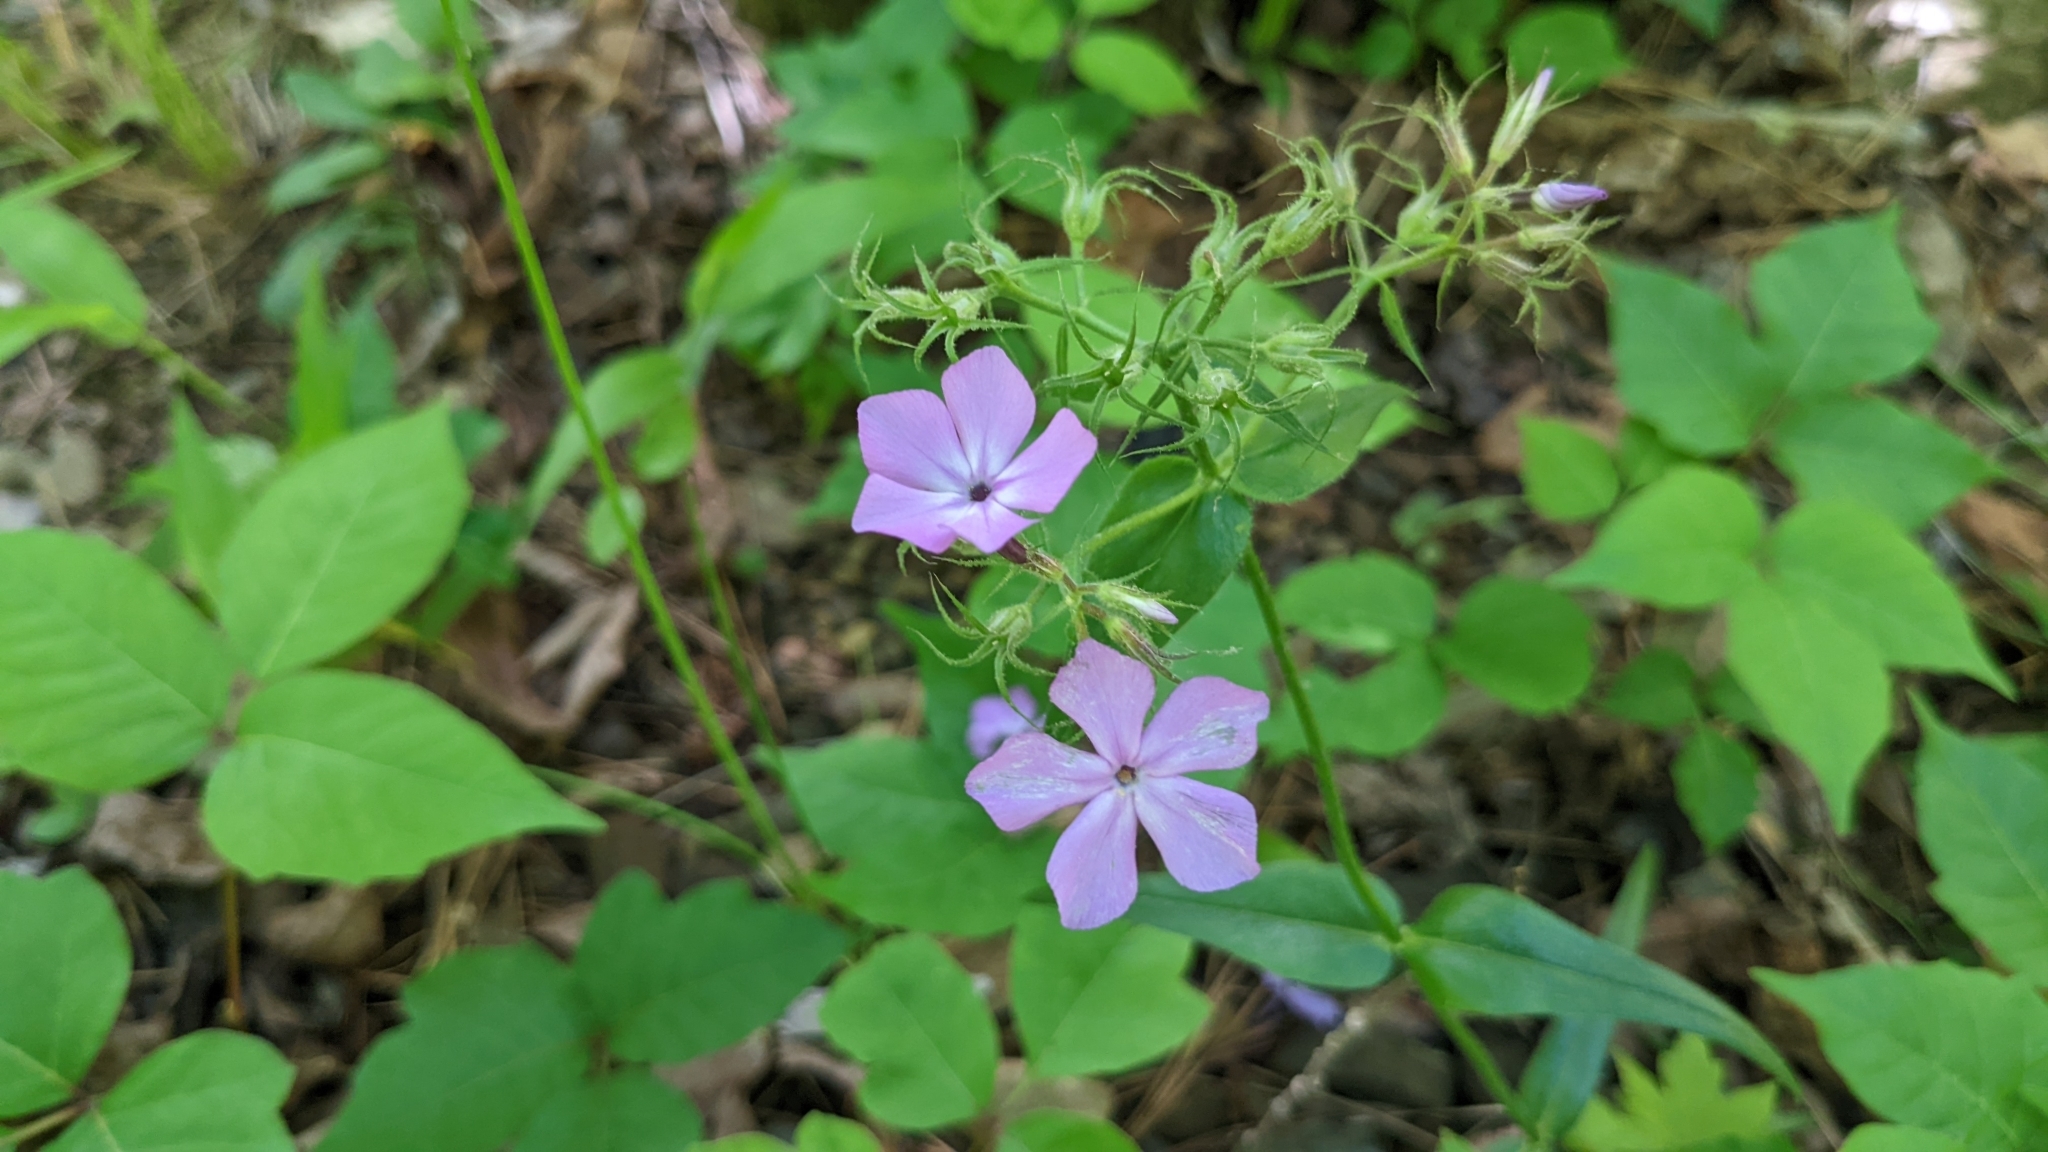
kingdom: Plantae
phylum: Tracheophyta
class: Magnoliopsida
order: Ericales
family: Polemoniaceae
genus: Phlox
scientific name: Phlox pilosa
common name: Prairie phlox
